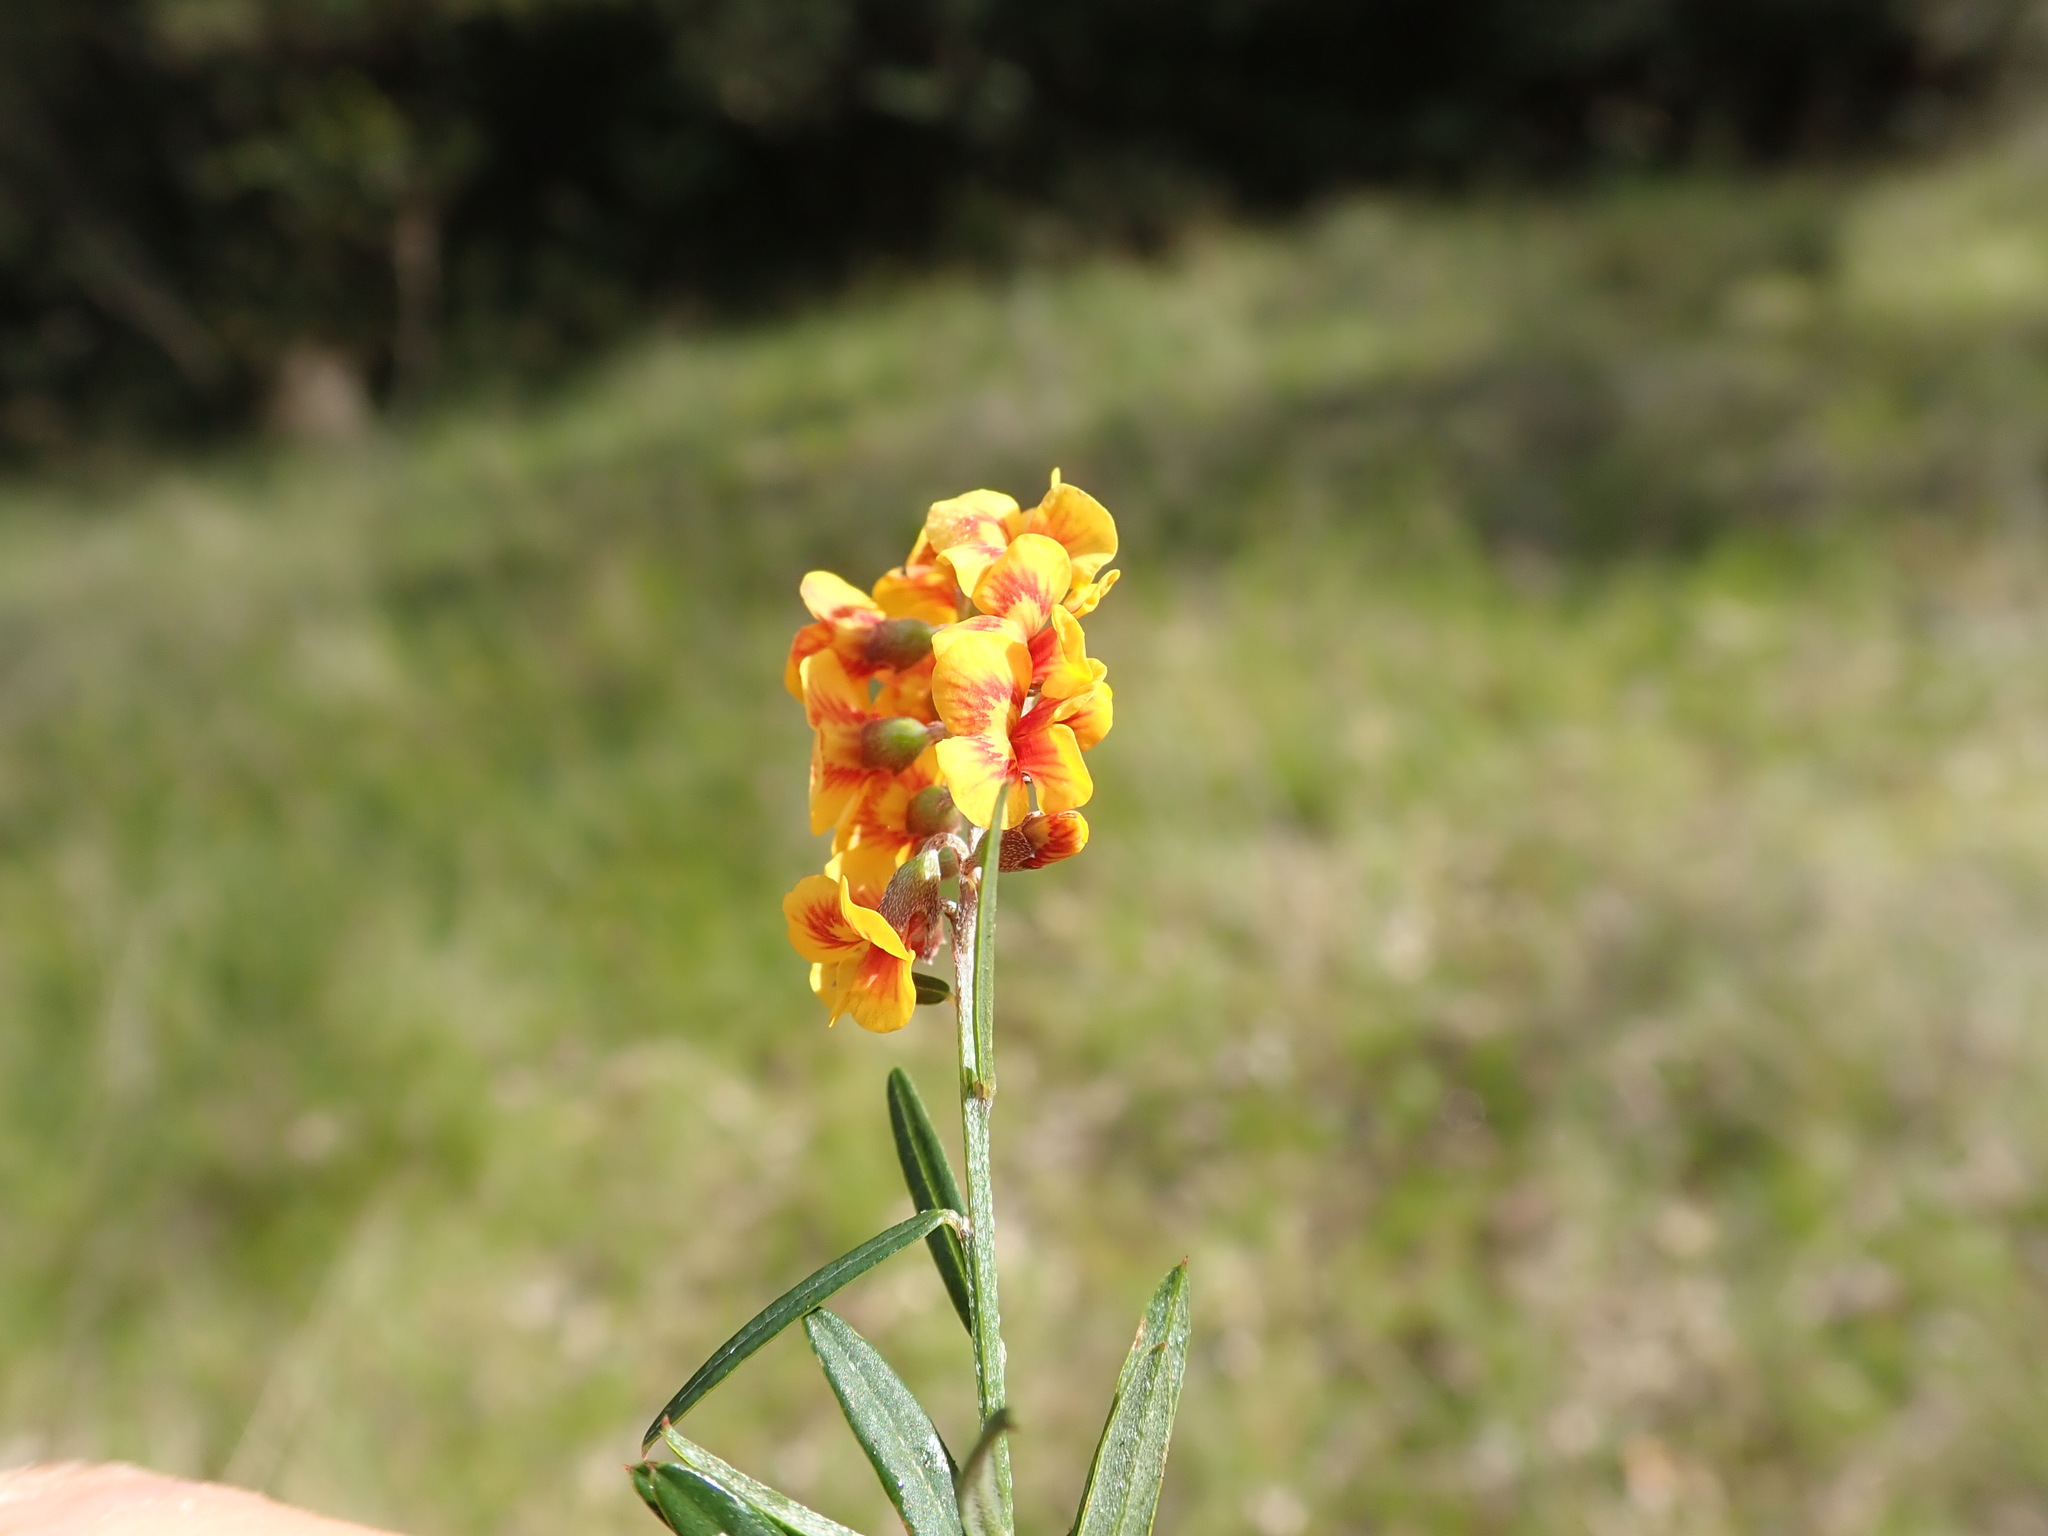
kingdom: Plantae
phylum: Tracheophyta
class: Magnoliopsida
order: Fabales
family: Fabaceae
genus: Chorizema
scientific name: Chorizema parviflorum
